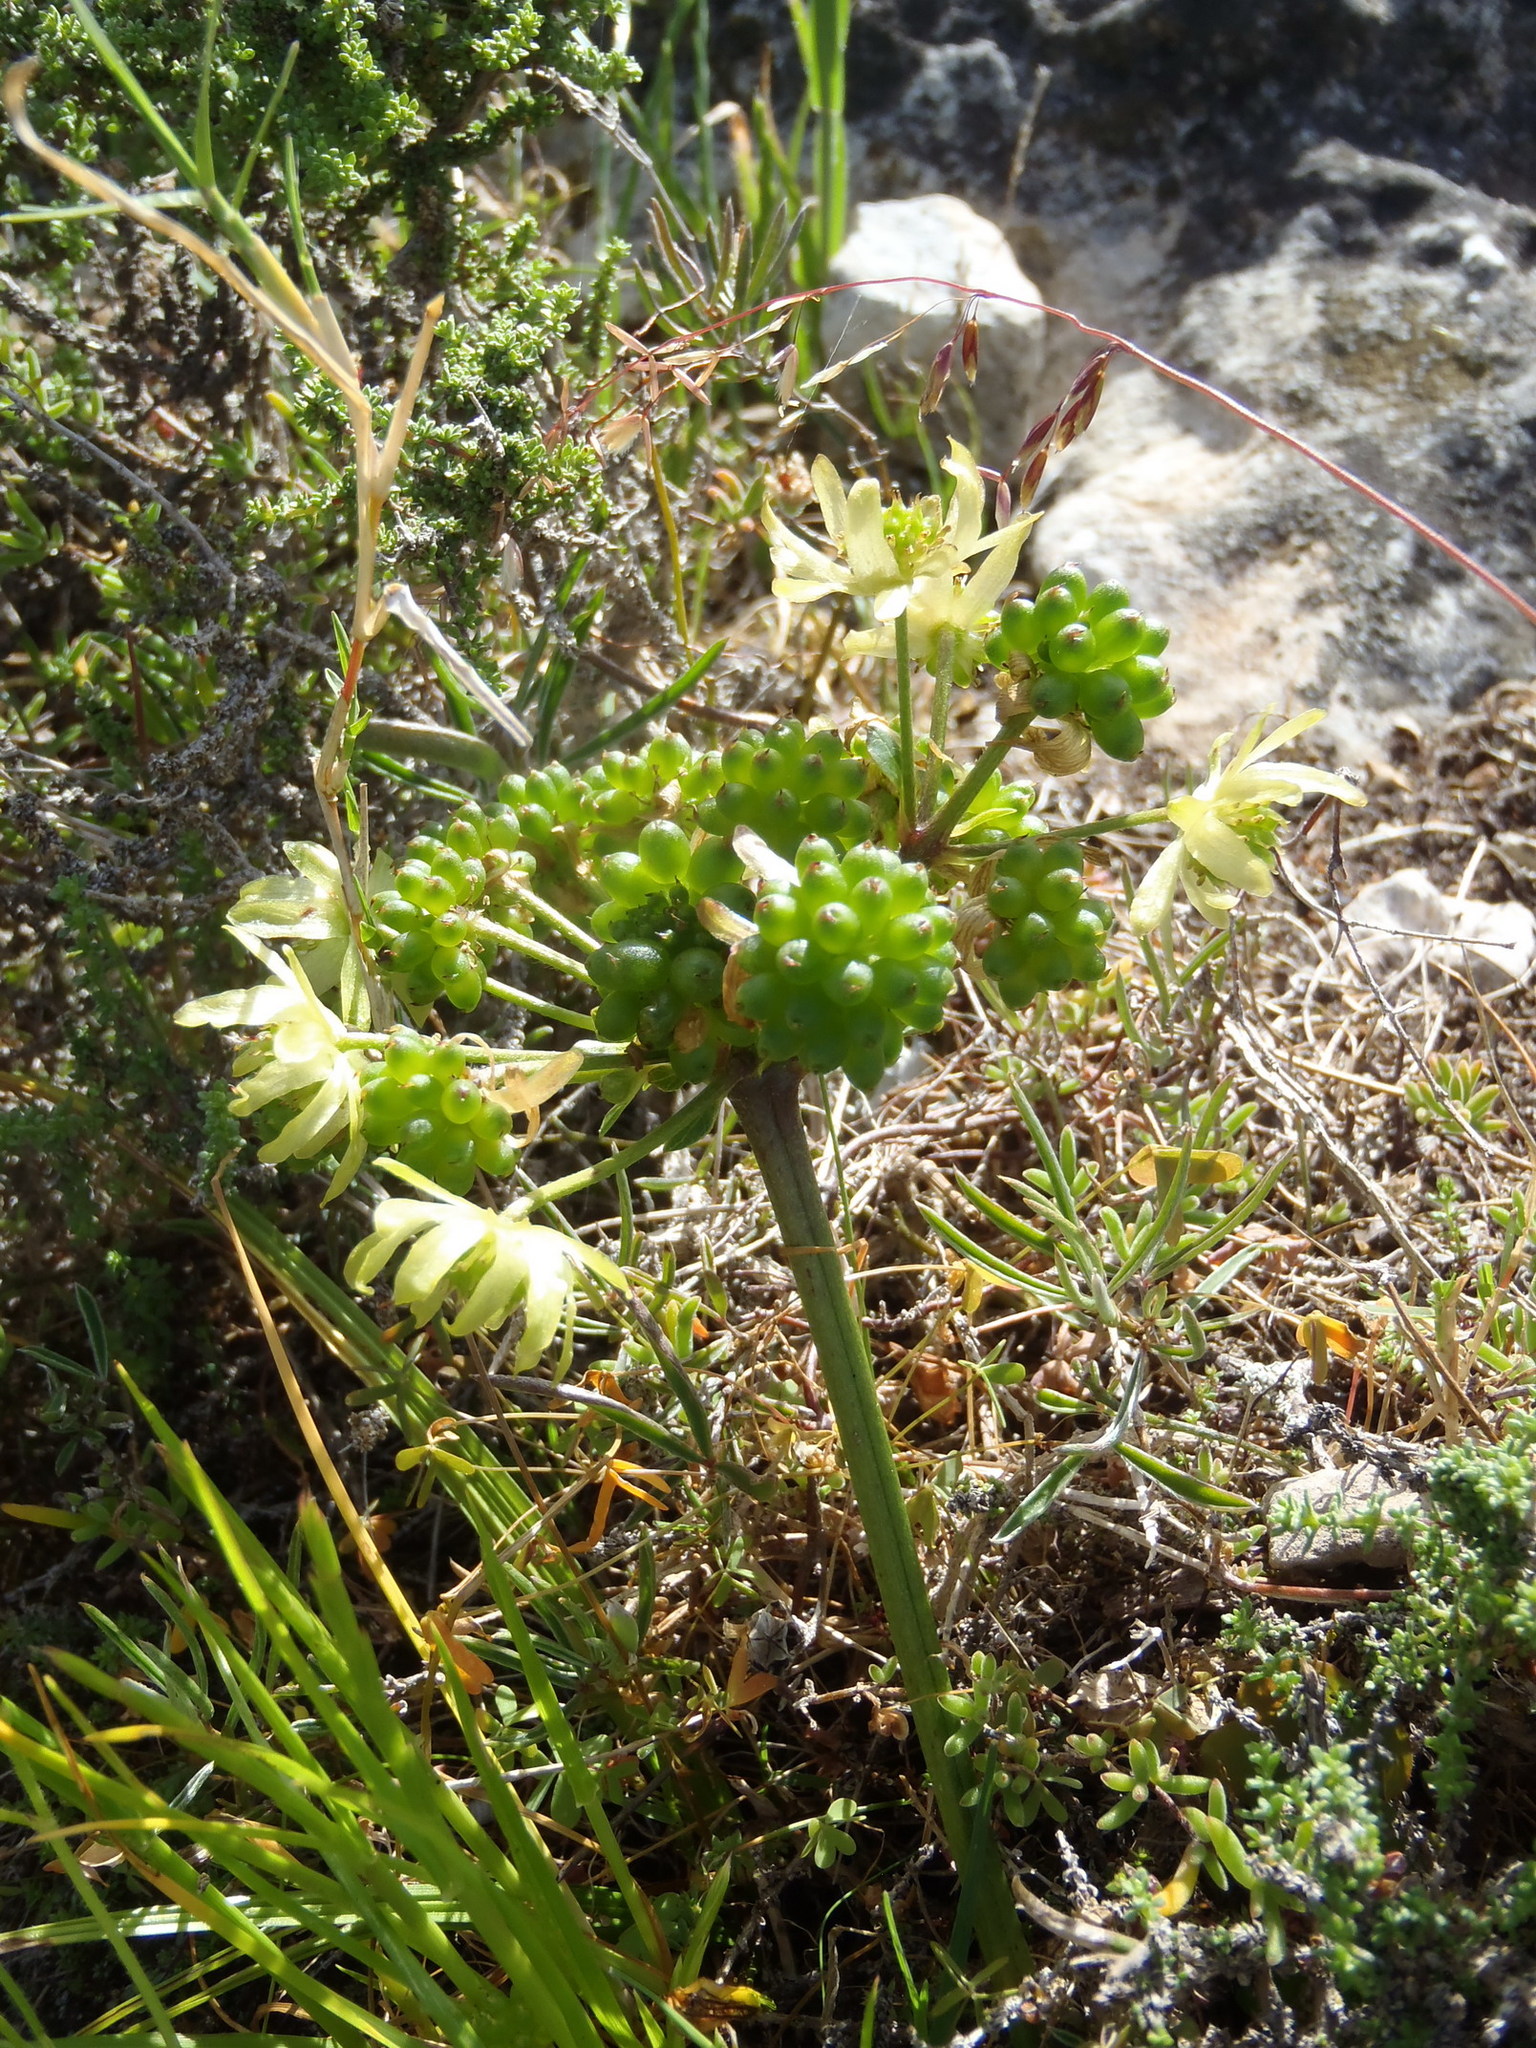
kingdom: Plantae
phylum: Tracheophyta
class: Magnoliopsida
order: Ranunculales
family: Ranunculaceae
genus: Knowltonia
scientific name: Knowltonia vesicatoria
